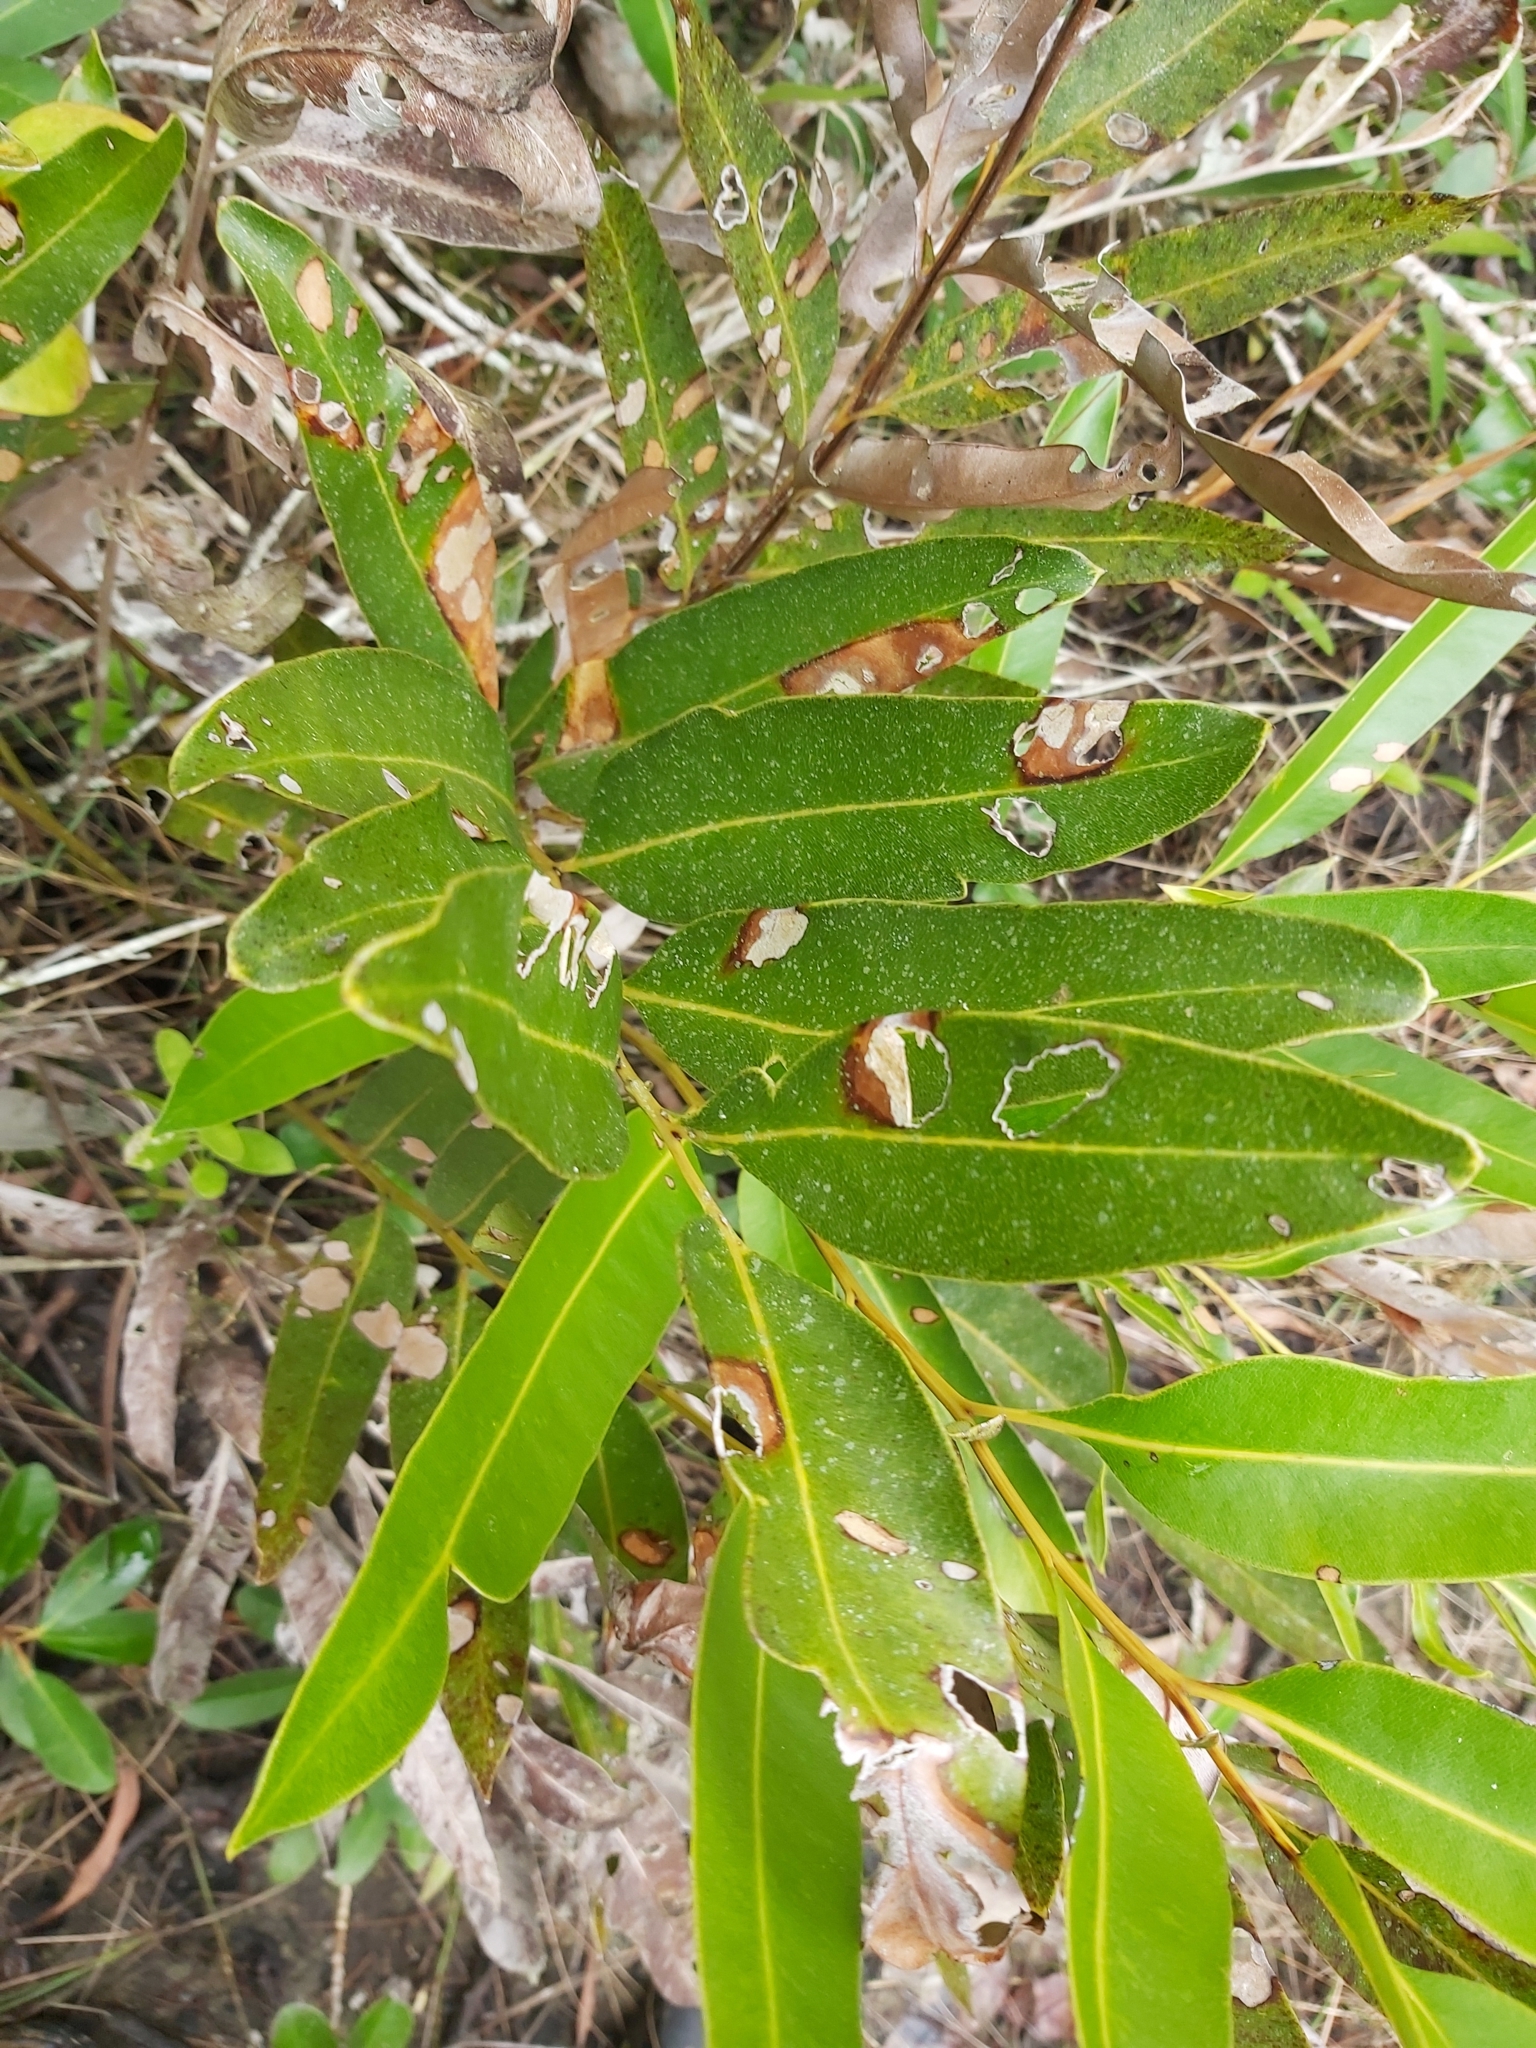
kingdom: Plantae
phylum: Tracheophyta
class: Polypodiopsida
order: Polypodiales
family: Pteridaceae
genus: Acrostichum
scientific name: Acrostichum speciosum
